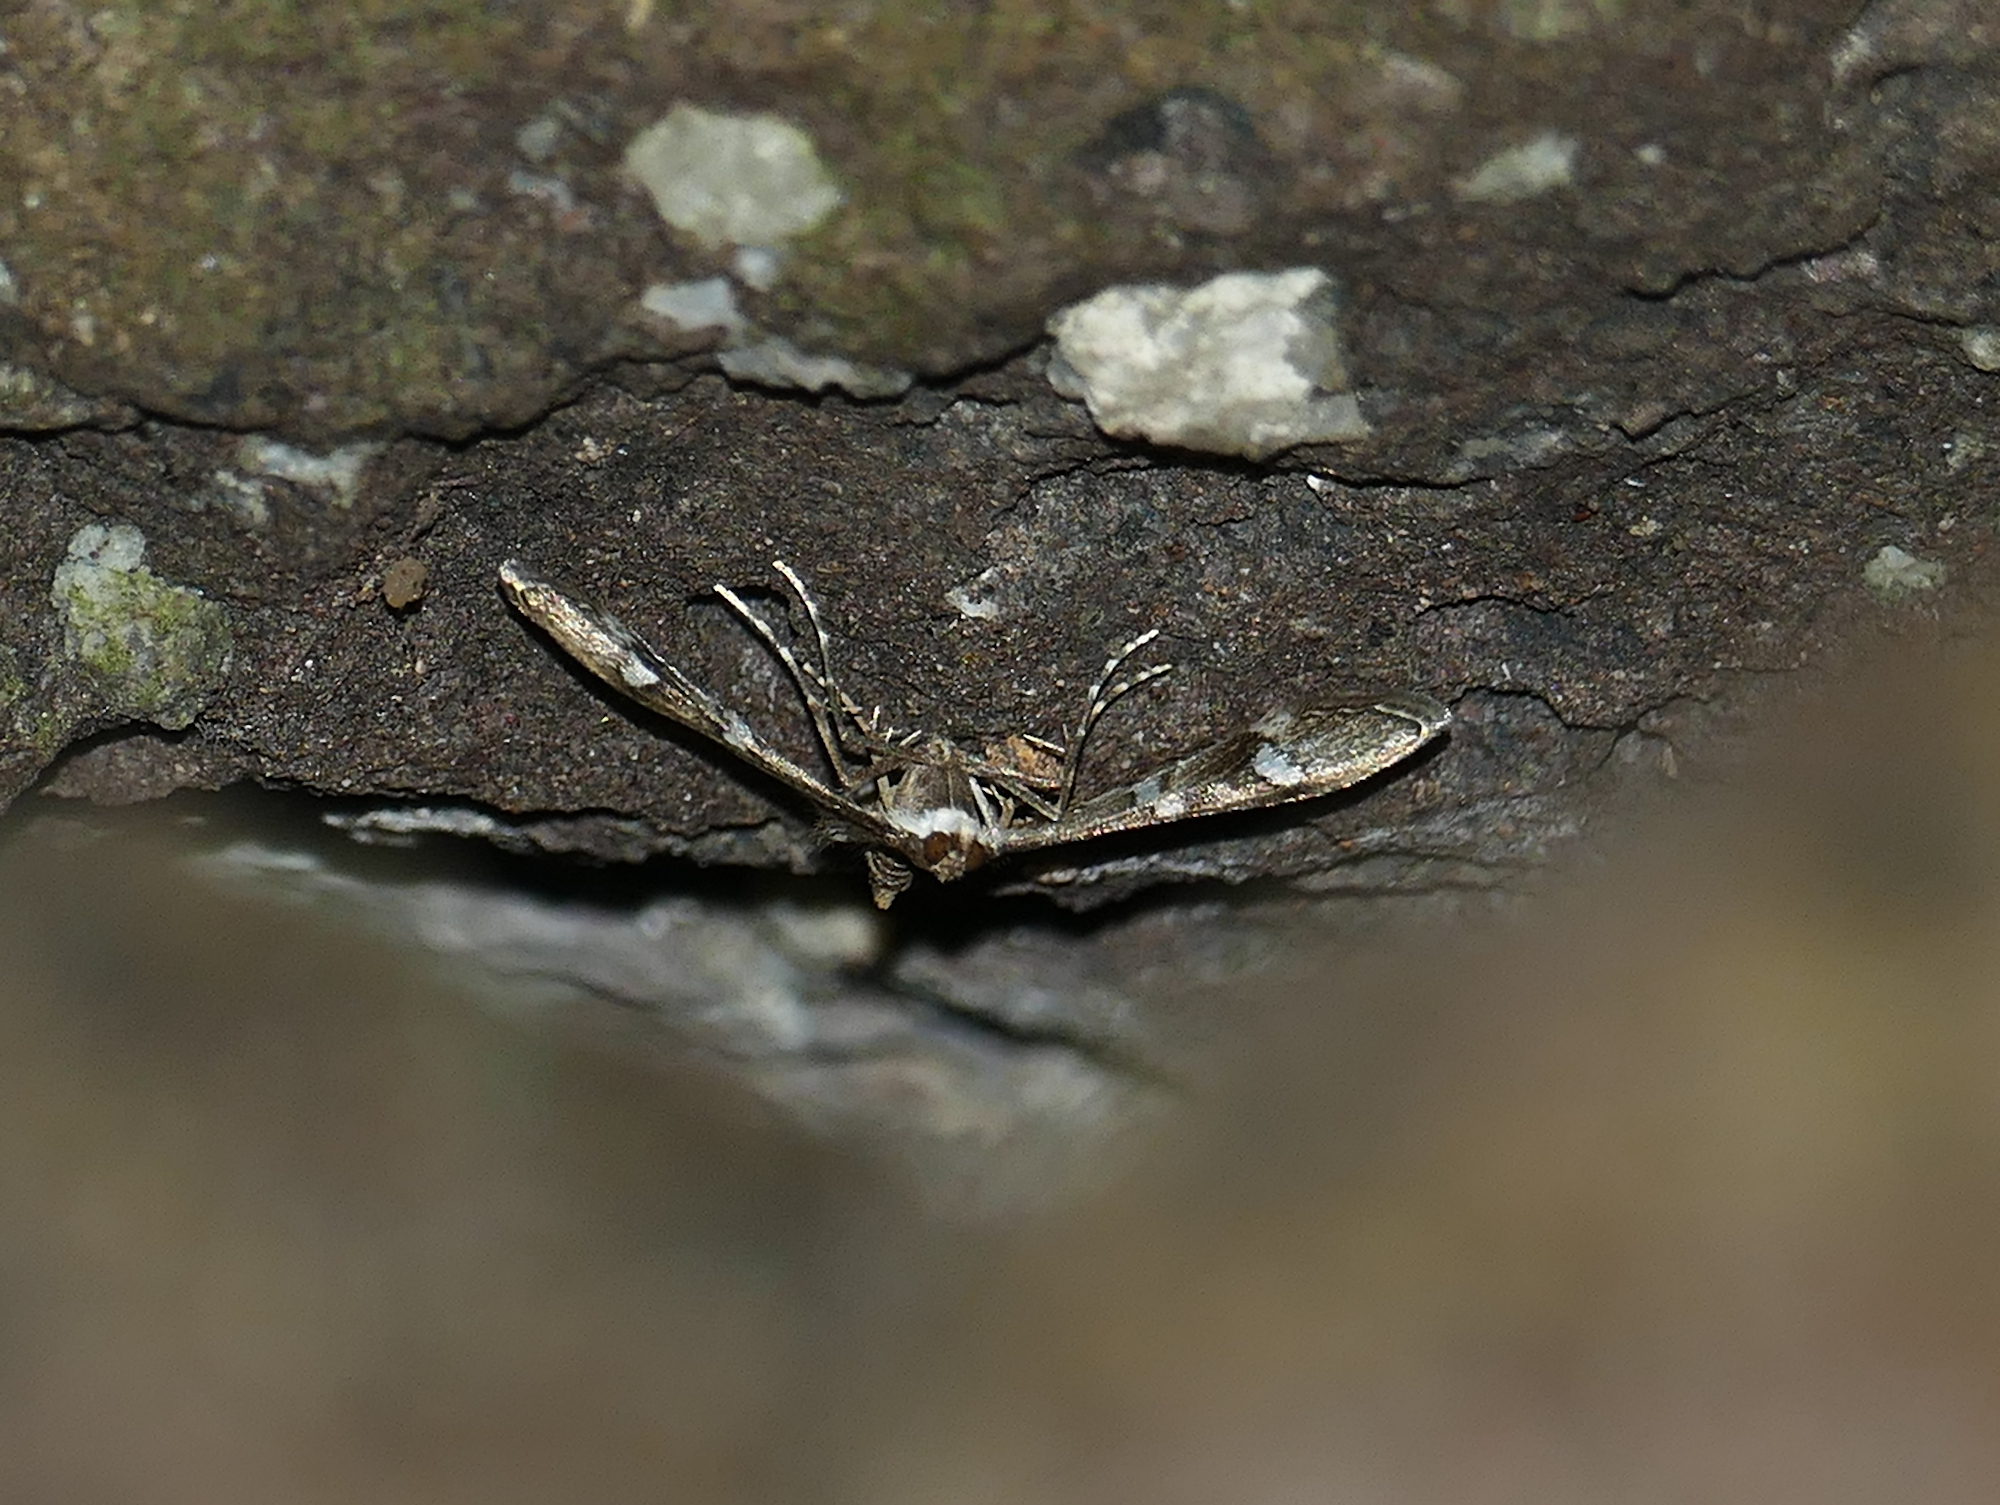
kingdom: Animalia
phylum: Arthropoda
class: Insecta
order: Lepidoptera
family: Crambidae
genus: Desmia
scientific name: Desmia
